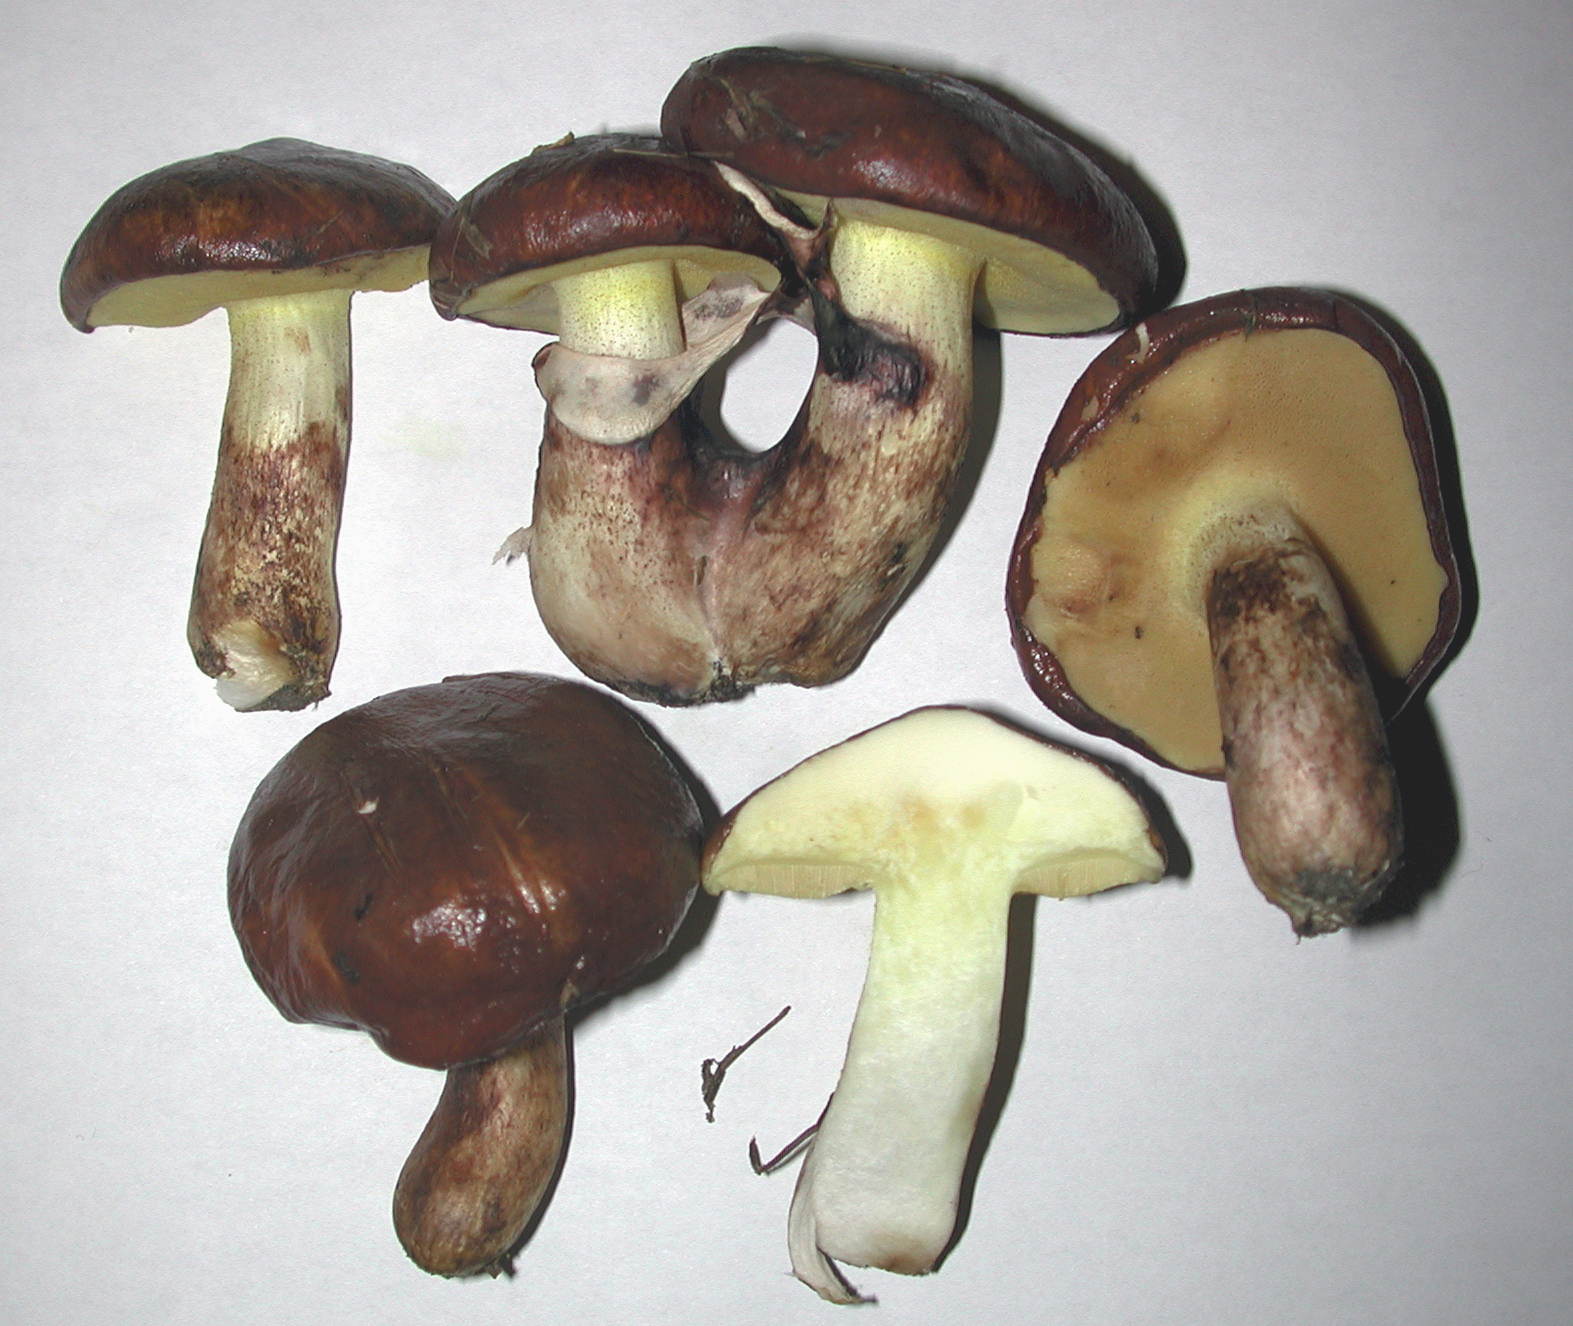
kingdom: Fungi
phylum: Basidiomycota
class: Agaricomycetes
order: Boletales
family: Suillaceae
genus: Suillus
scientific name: Suillus luteus
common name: Slippery jack
